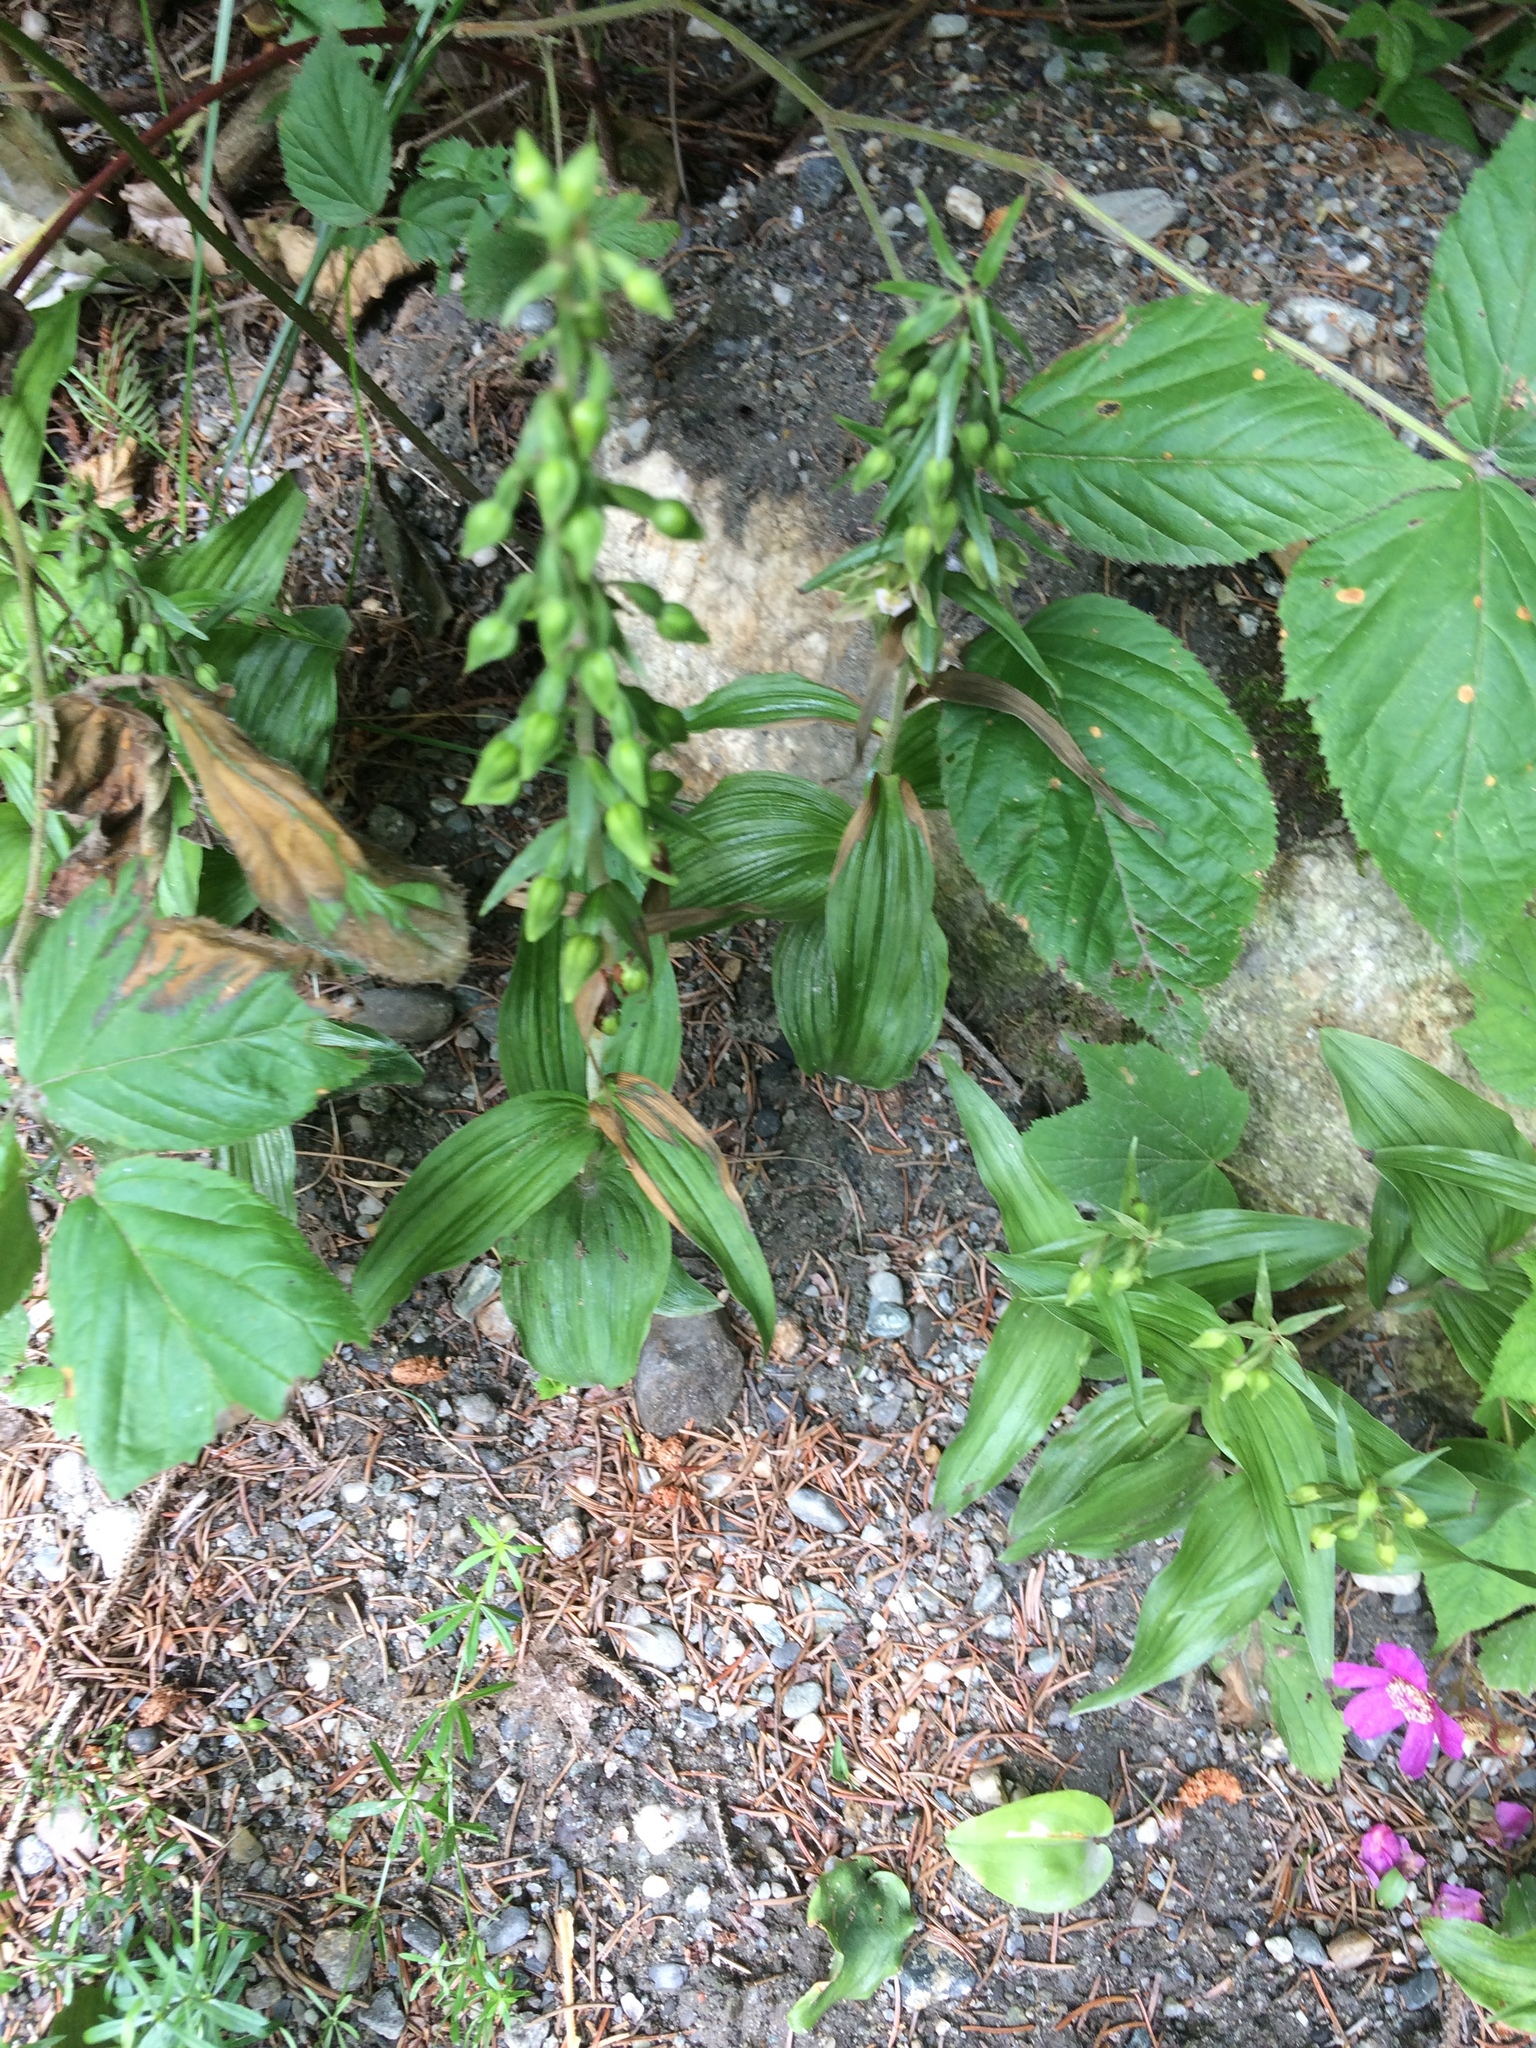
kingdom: Plantae
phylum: Tracheophyta
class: Liliopsida
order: Asparagales
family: Orchidaceae
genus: Epipactis
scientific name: Epipactis helleborine
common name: Broad-leaved helleborine
